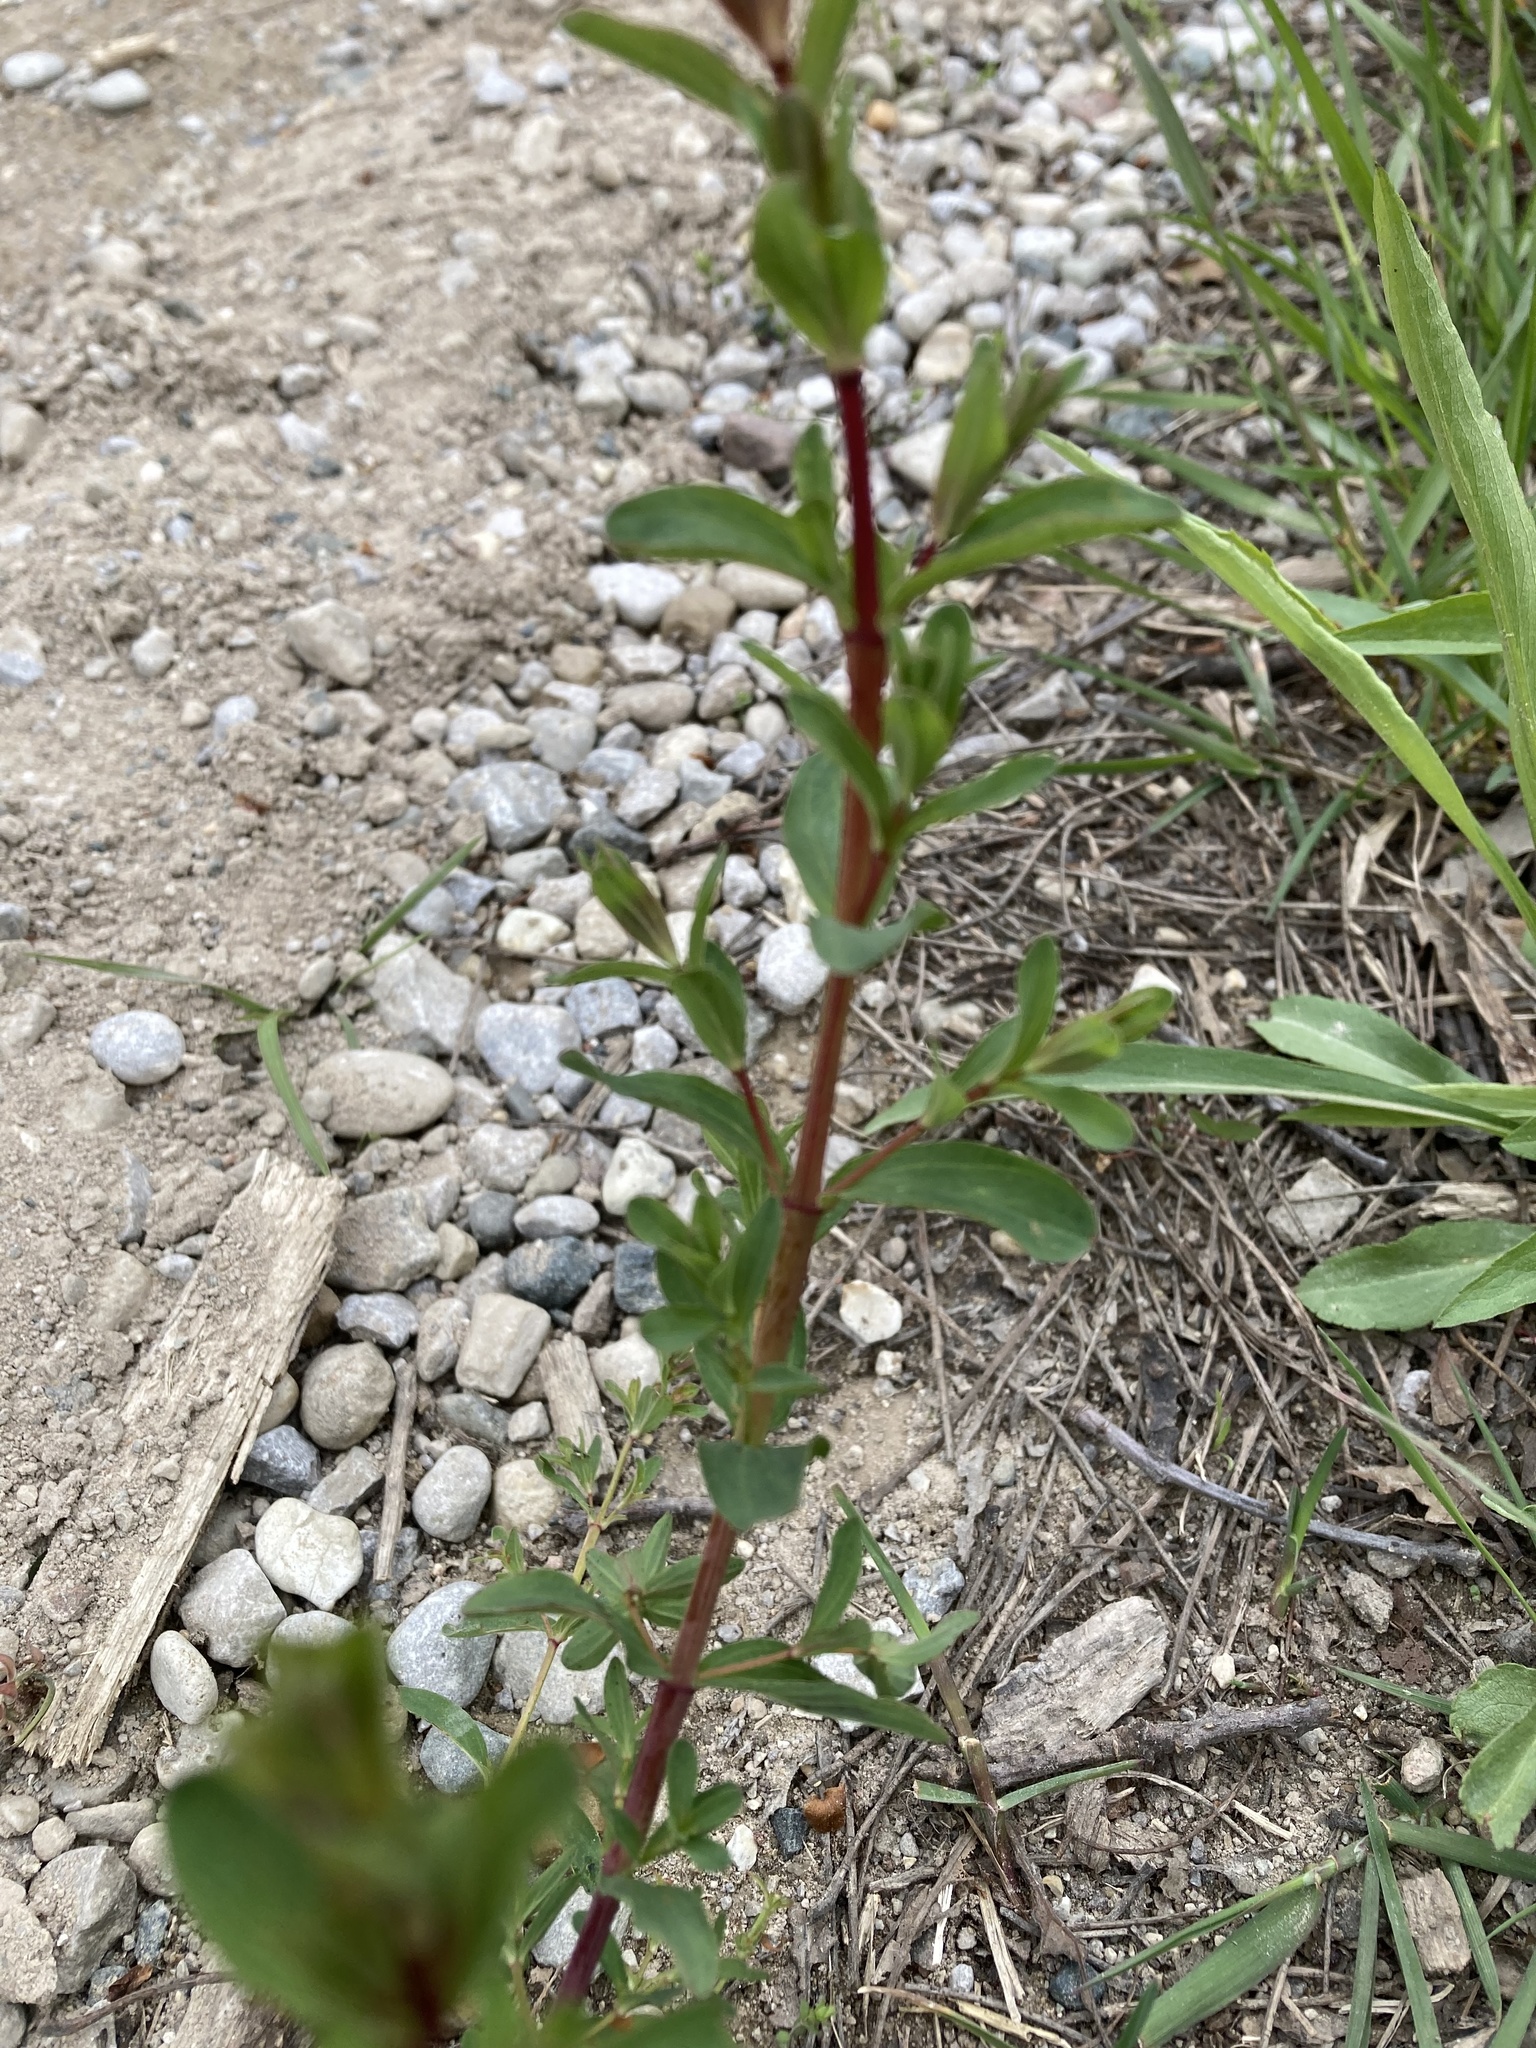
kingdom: Plantae
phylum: Tracheophyta
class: Magnoliopsida
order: Malpighiales
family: Hypericaceae
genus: Hypericum
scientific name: Hypericum perforatum
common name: Common st. johnswort
